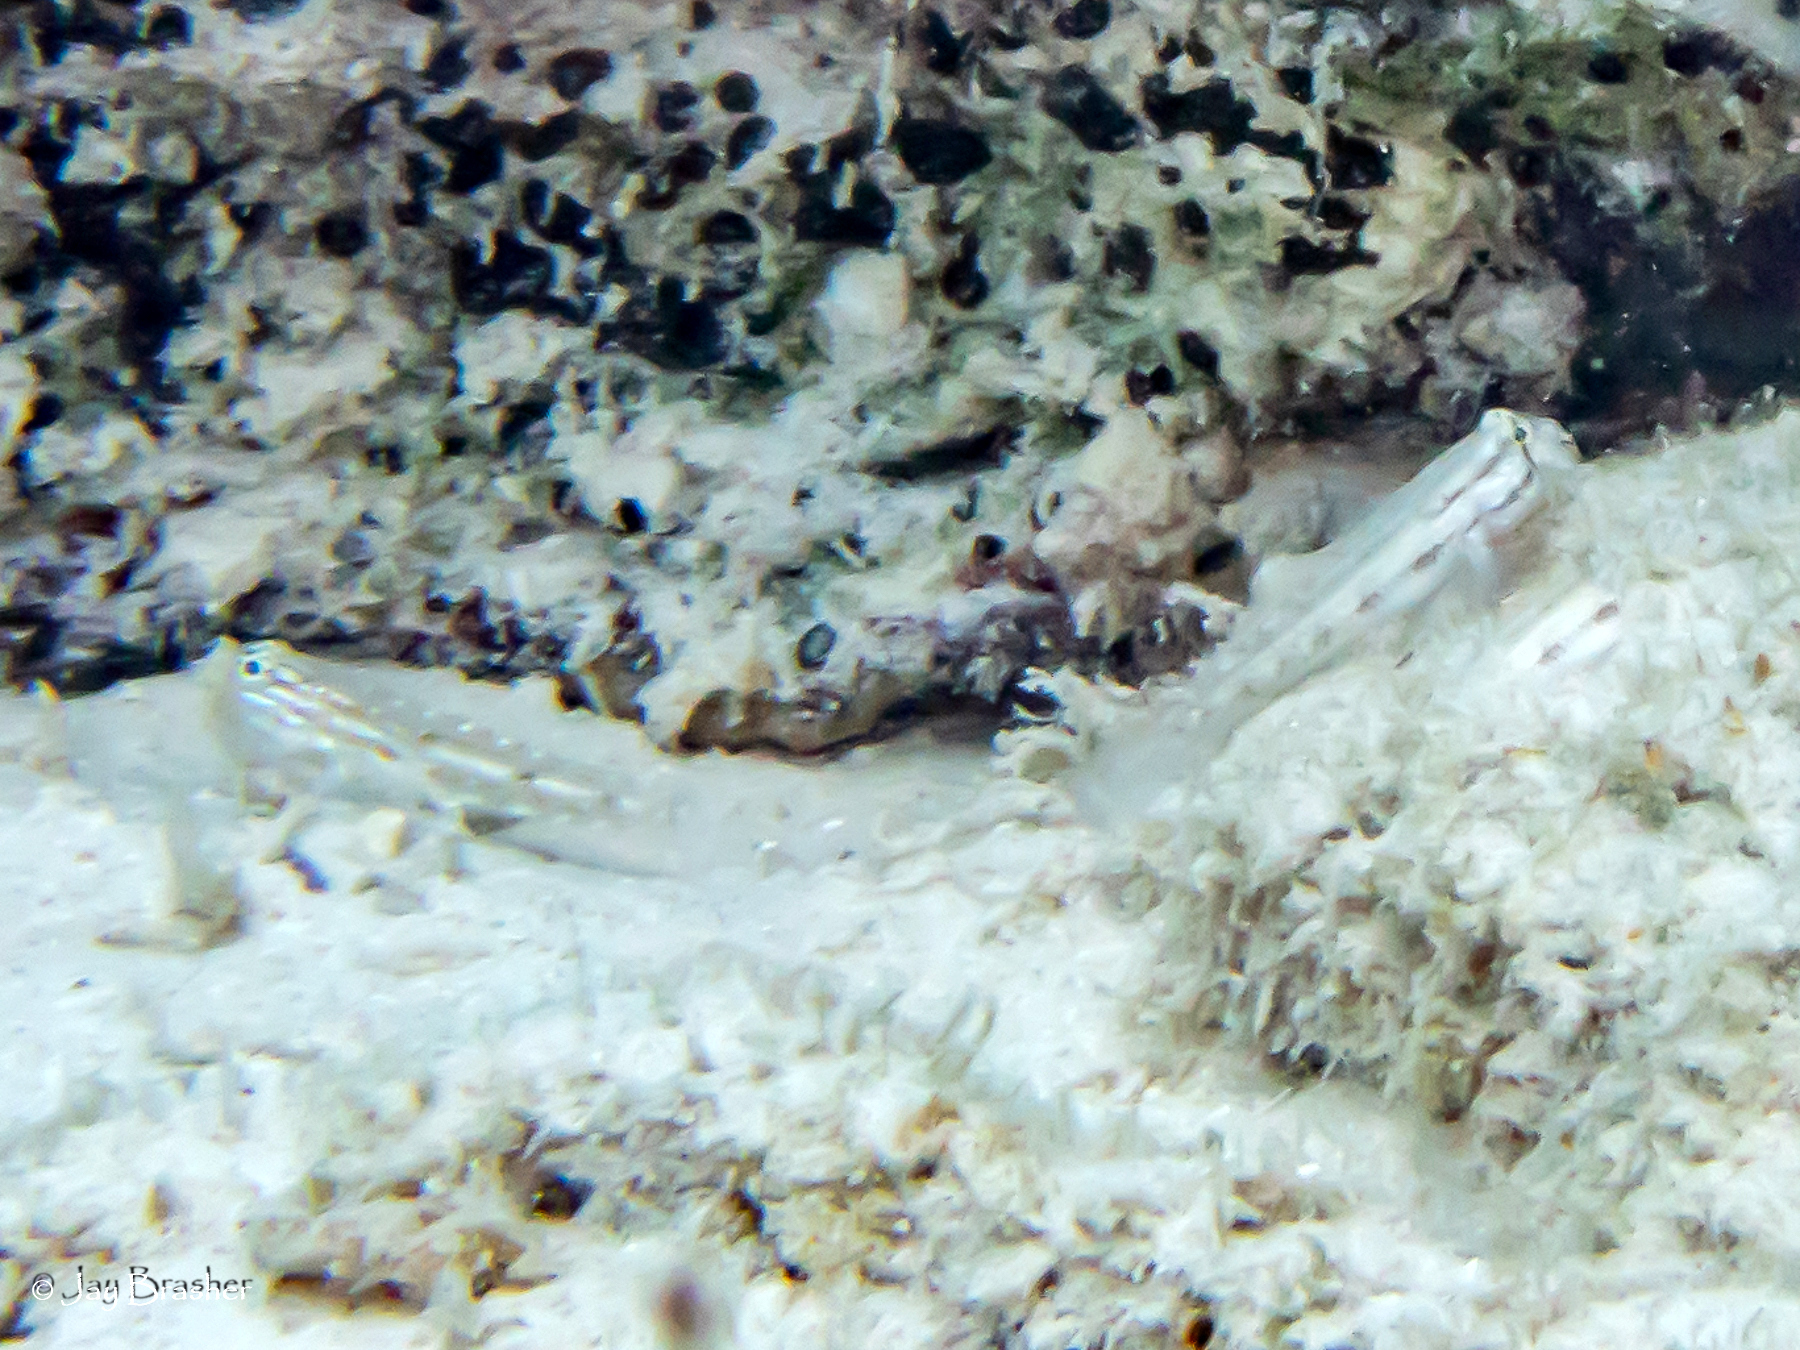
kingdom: Animalia
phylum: Chordata
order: Perciformes
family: Gobiidae
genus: Gnatholepis
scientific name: Gnatholepis thompsoni
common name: Goldspot goby
